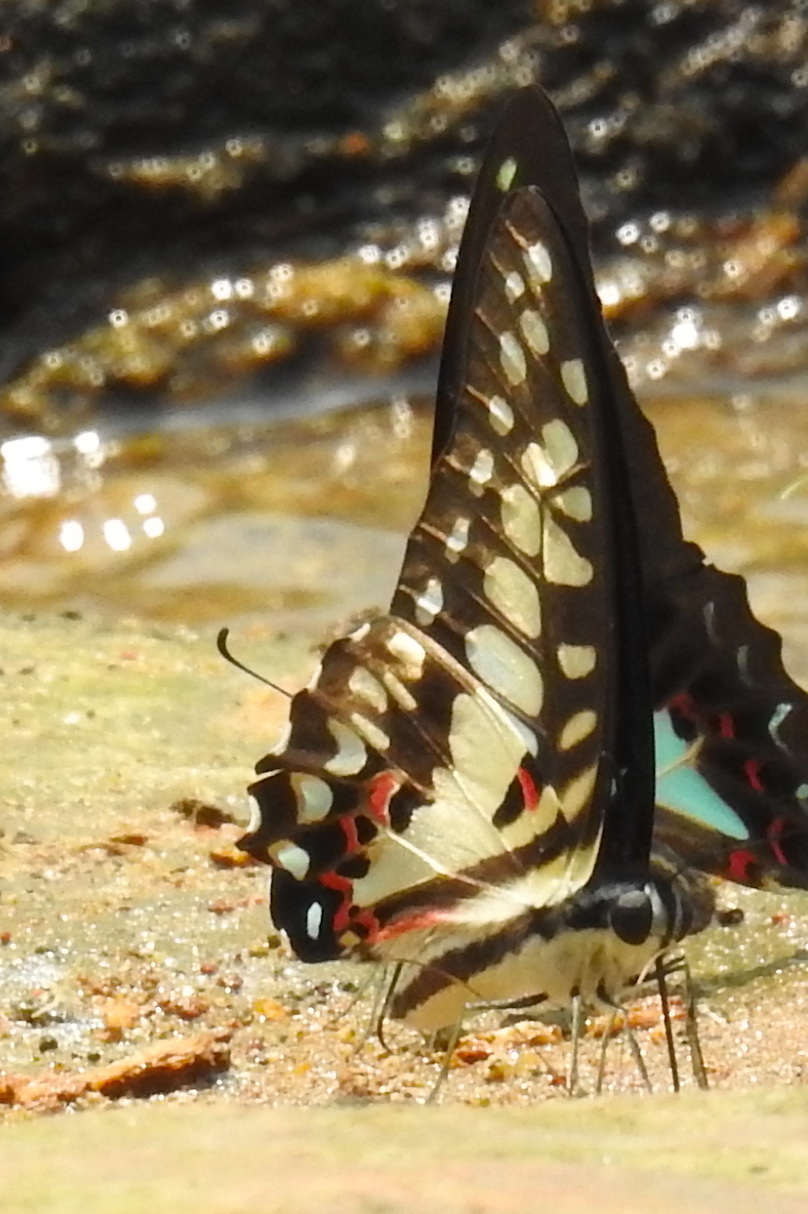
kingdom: Animalia
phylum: Arthropoda
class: Insecta
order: Lepidoptera
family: Papilionidae
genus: Graphium
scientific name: Graphium doson
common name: Common jay
